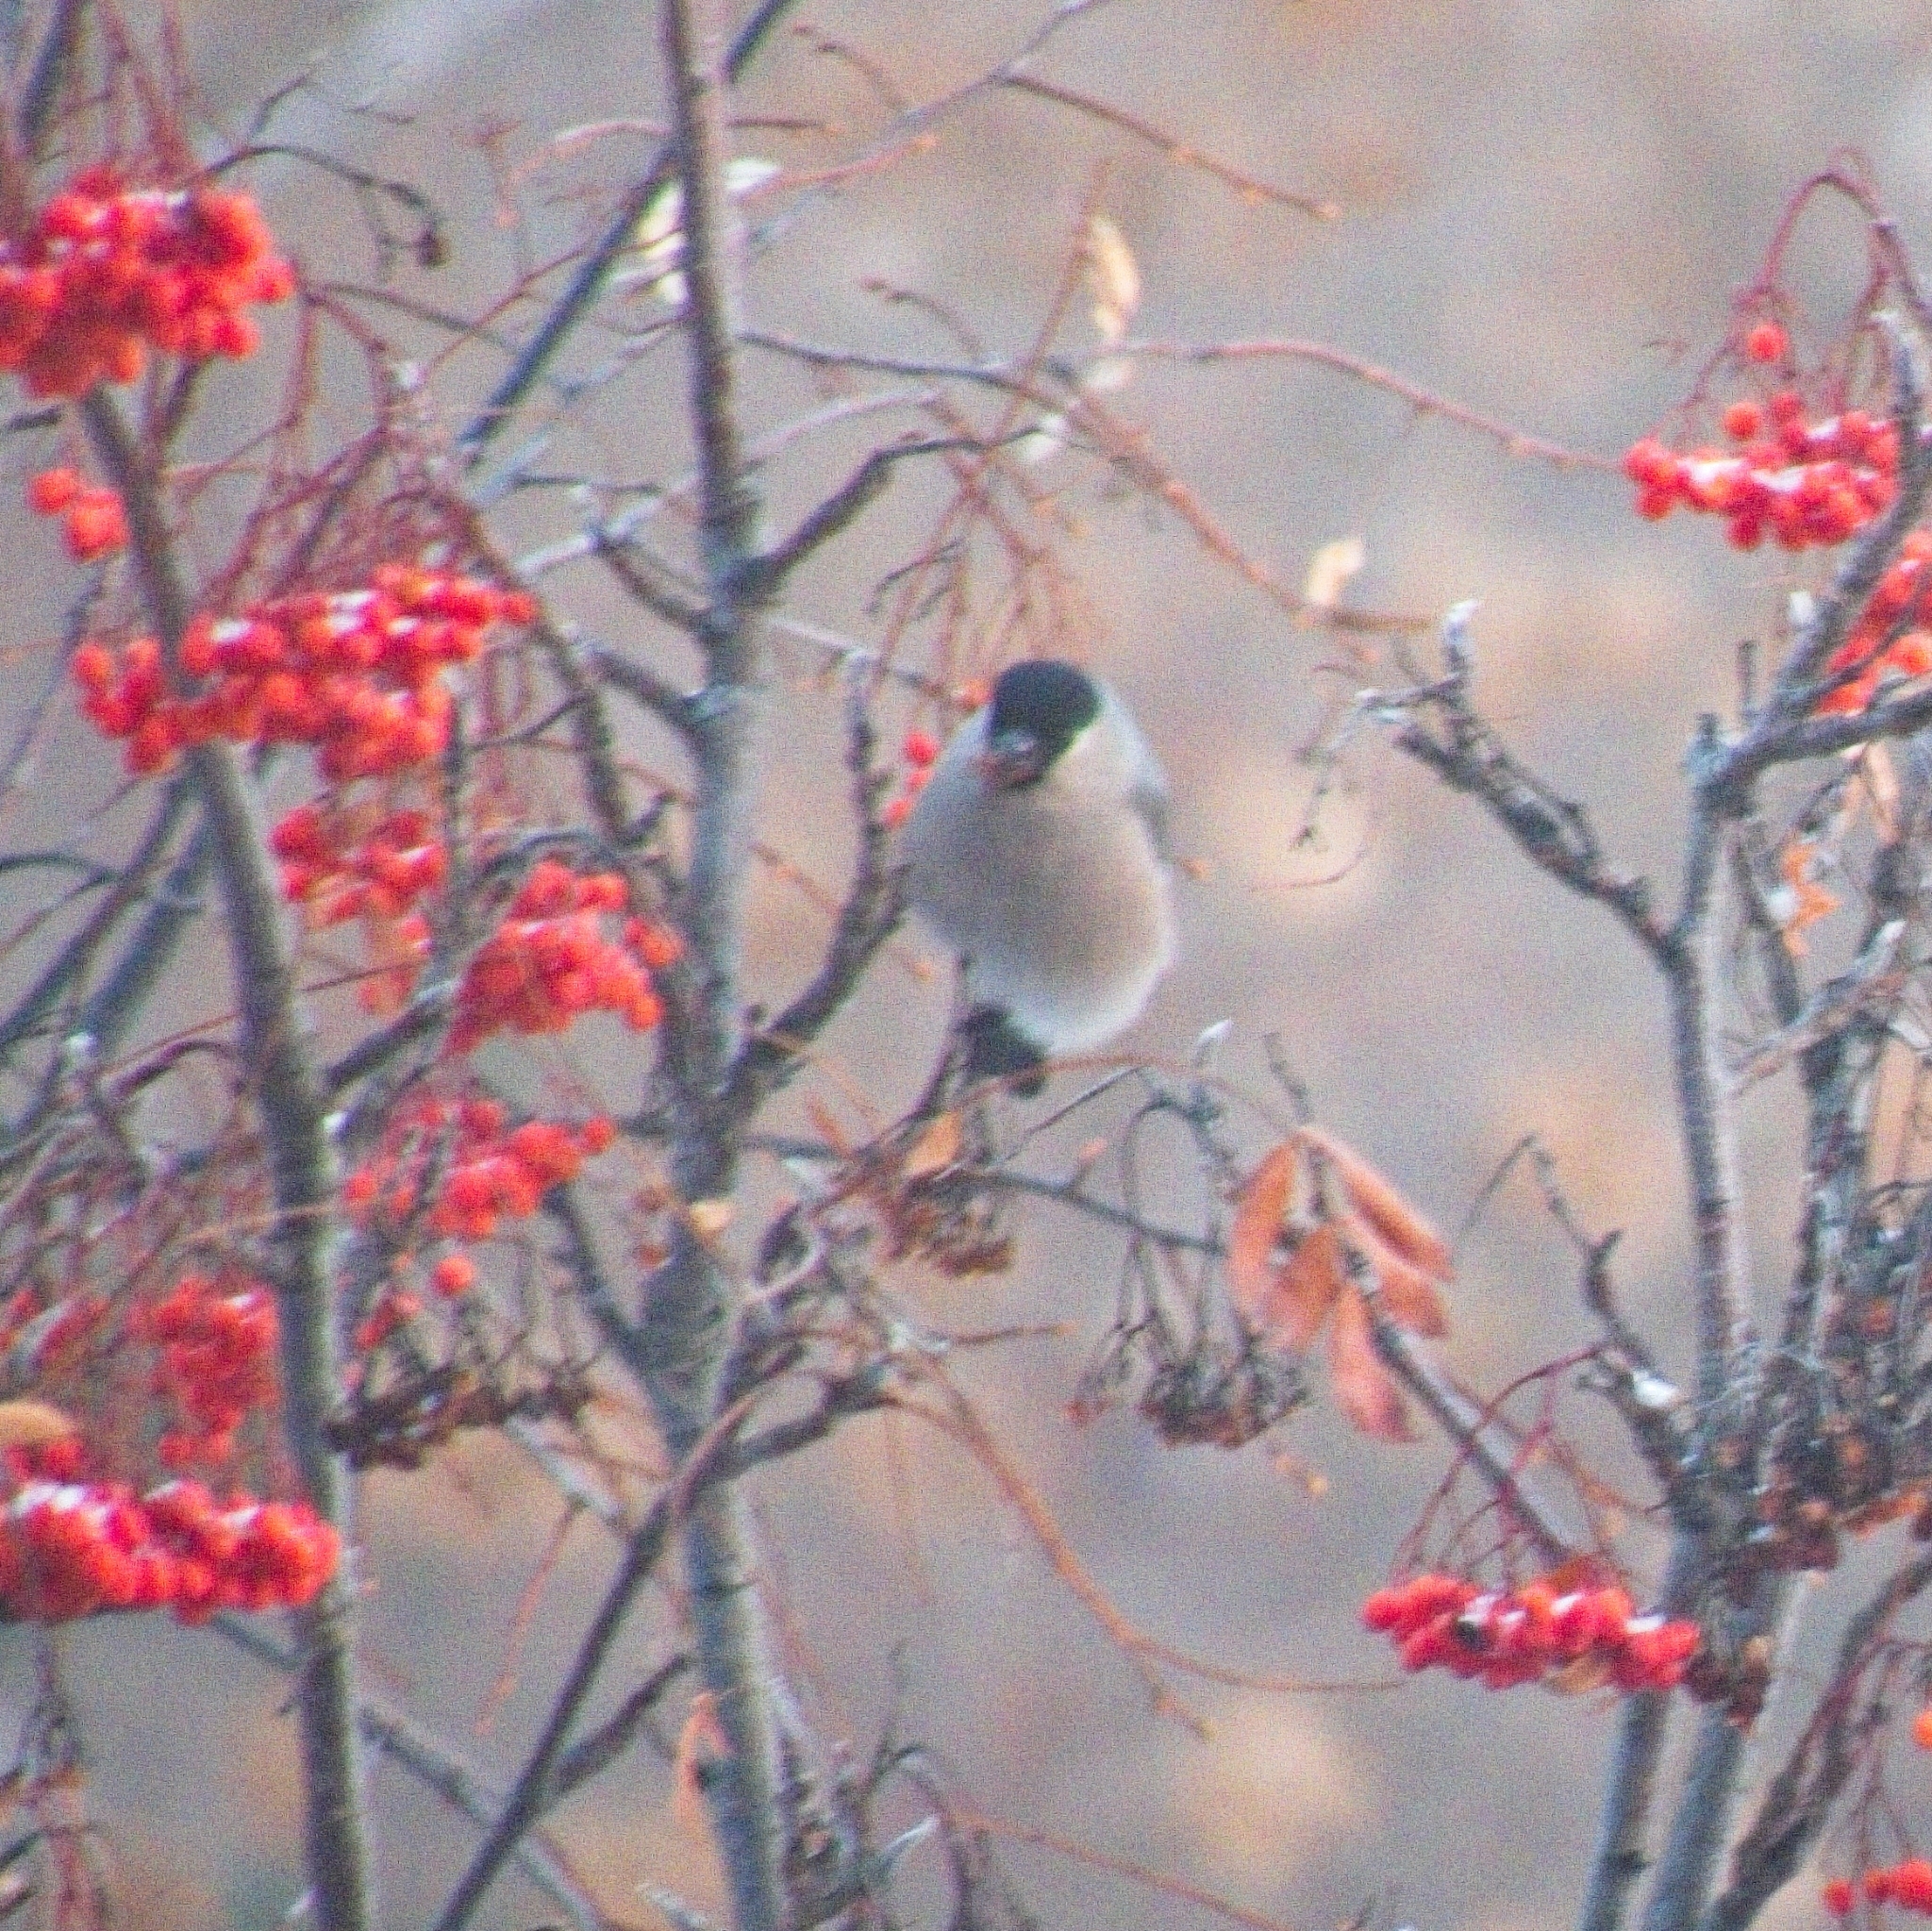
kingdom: Animalia
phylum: Chordata
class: Aves
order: Passeriformes
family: Fringillidae
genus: Pyrrhula
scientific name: Pyrrhula pyrrhula
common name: Eurasian bullfinch
